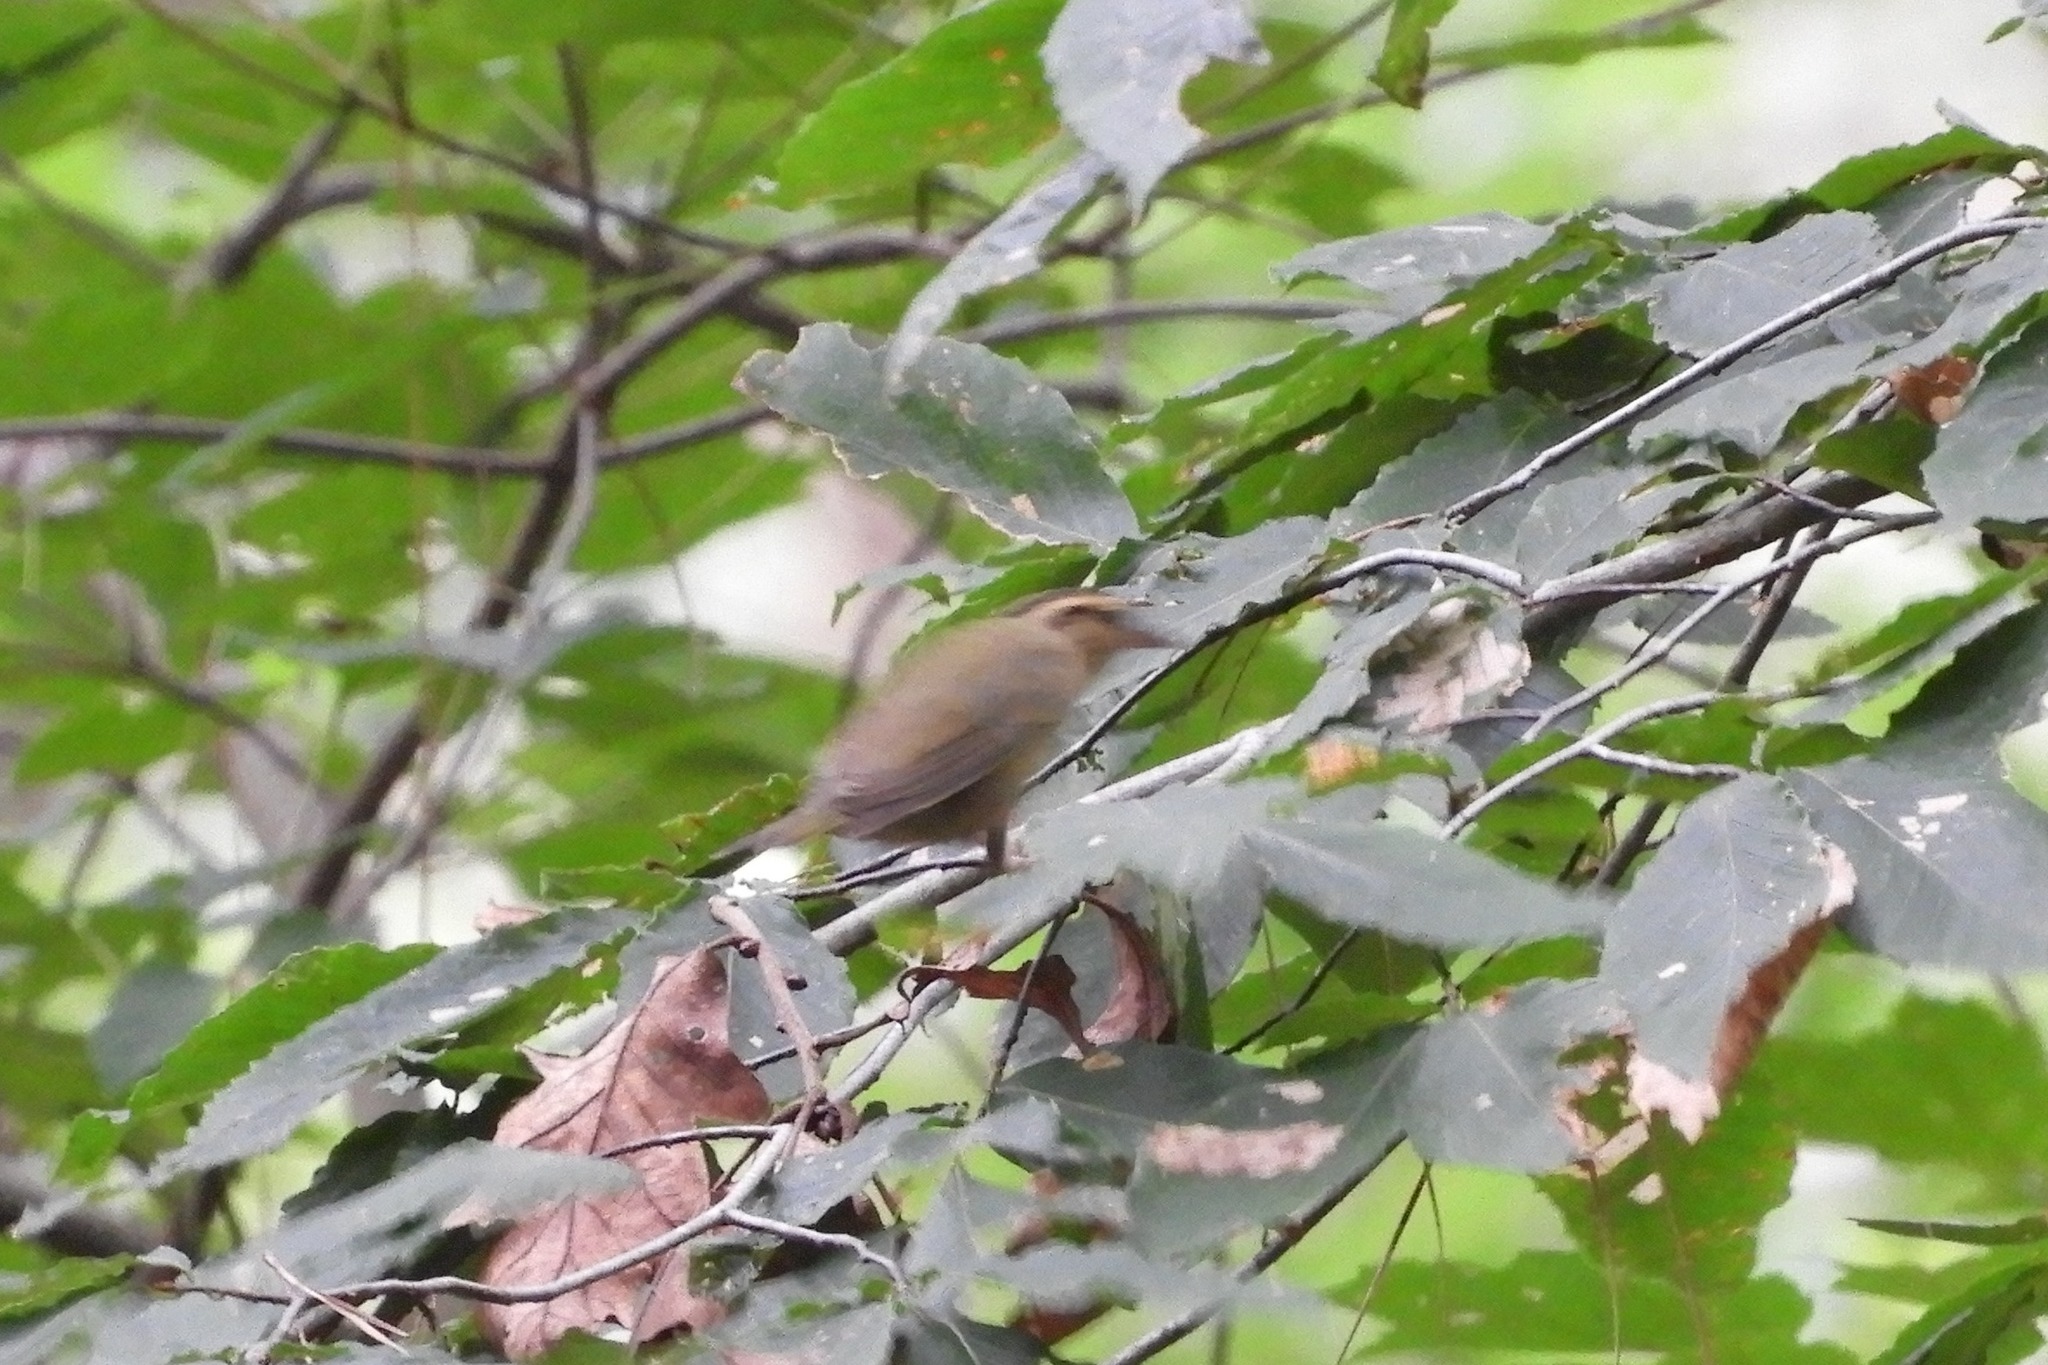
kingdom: Animalia
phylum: Chordata
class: Aves
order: Passeriformes
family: Parulidae
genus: Helmitheros
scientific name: Helmitheros vermivorum
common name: Worm-eating warbler
